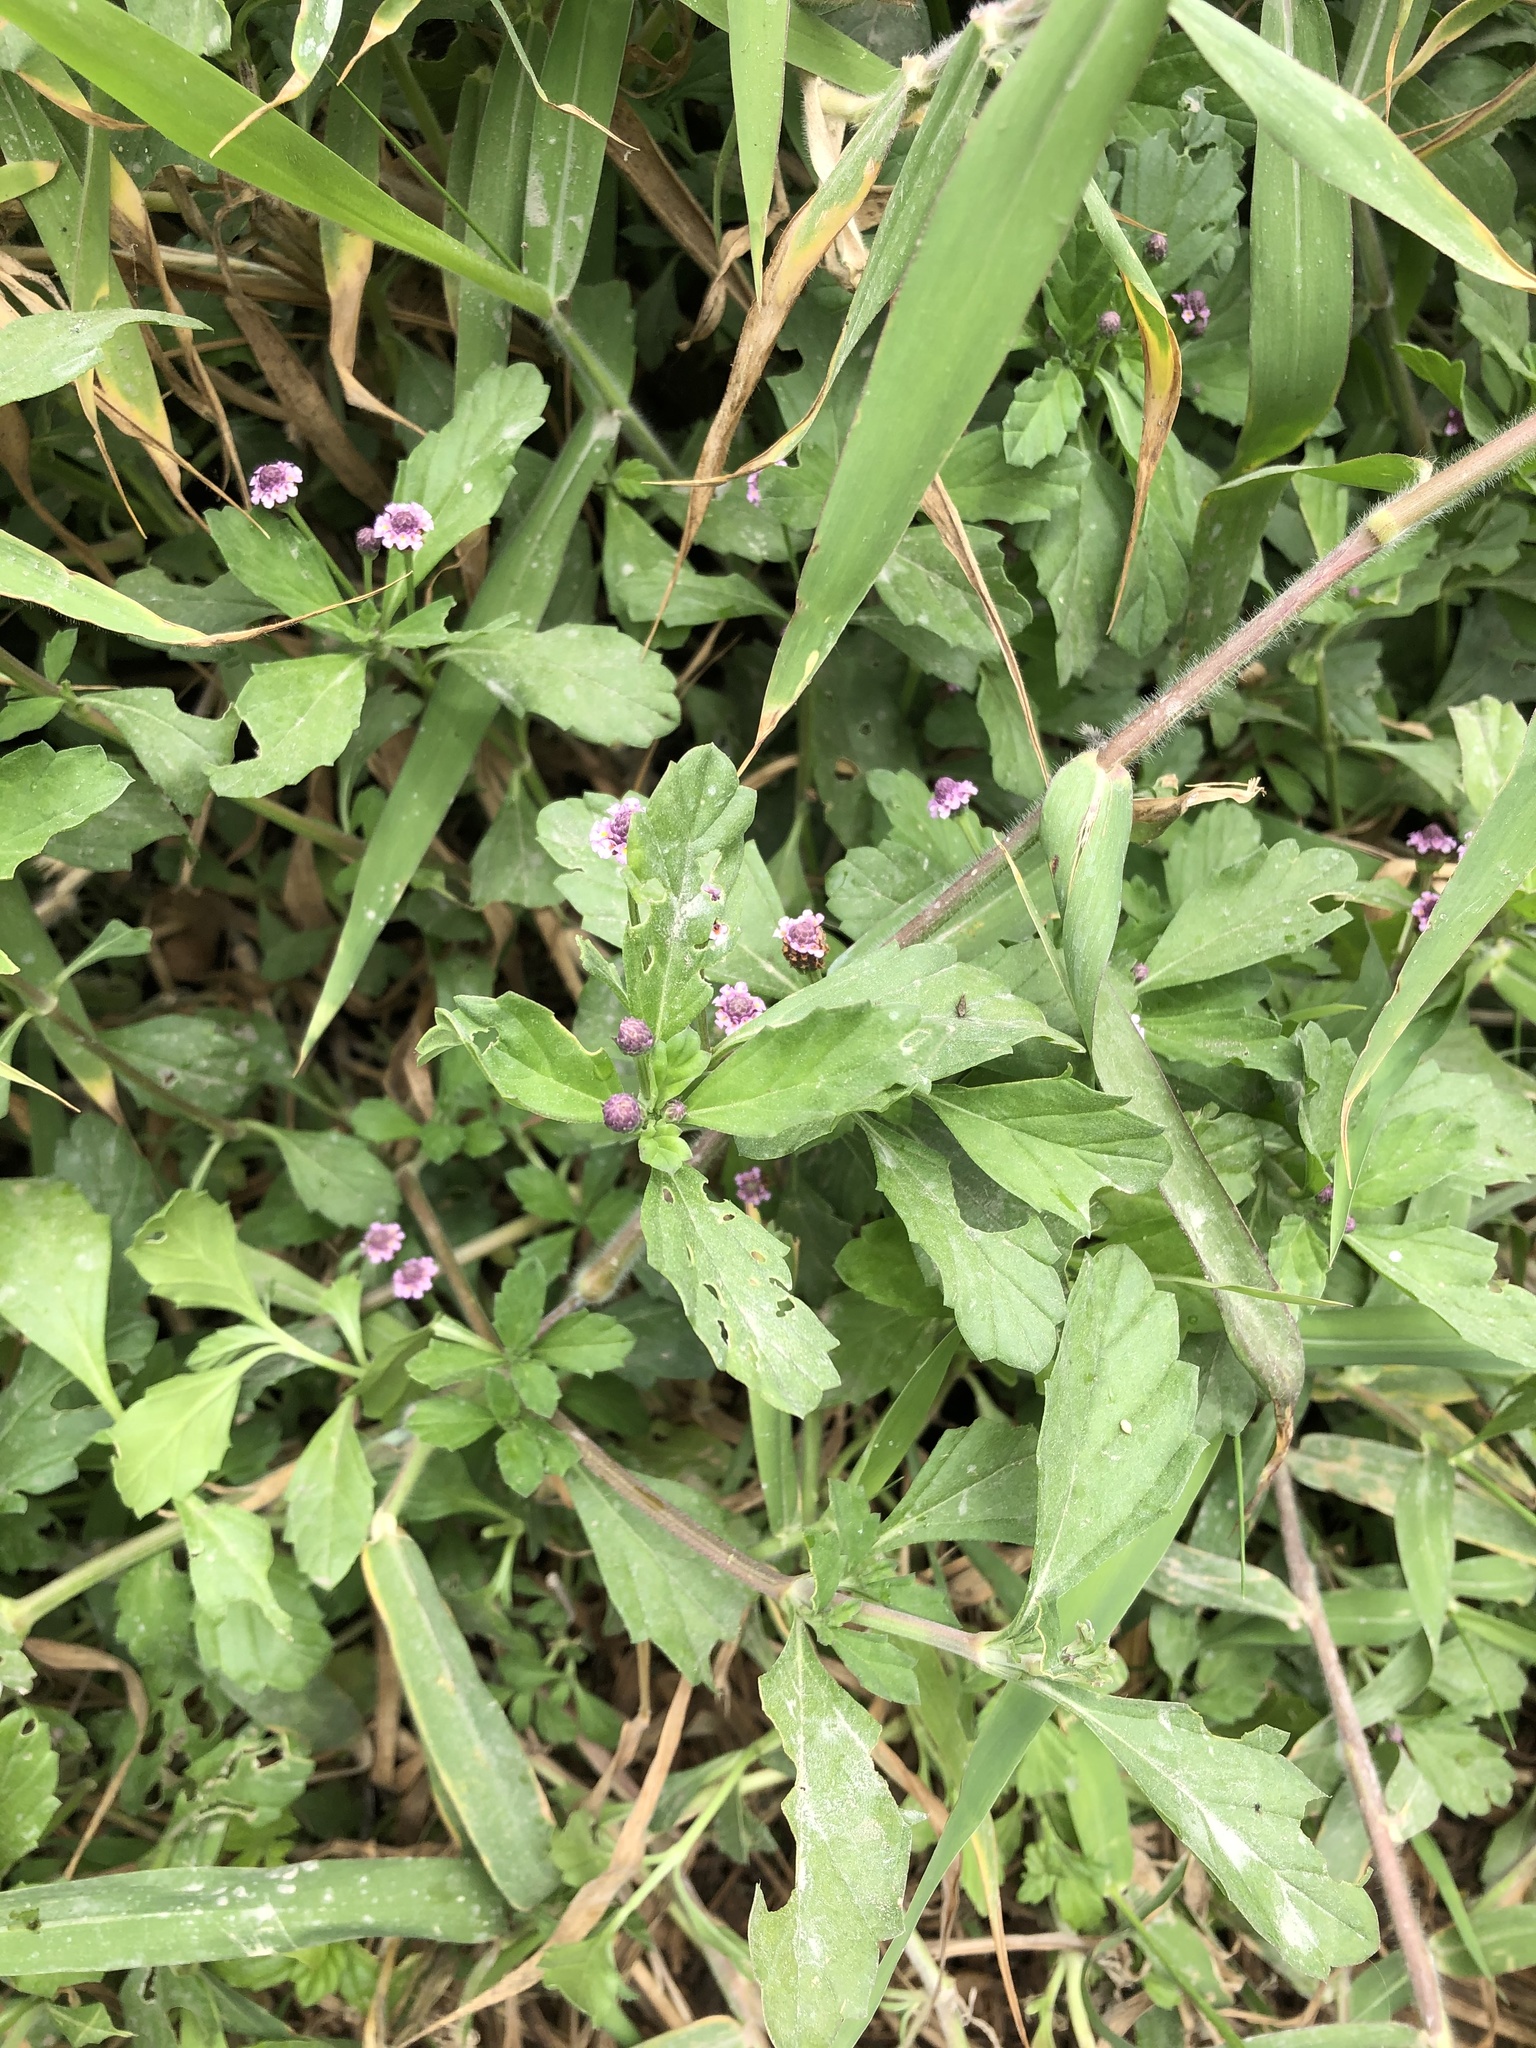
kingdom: Plantae
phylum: Tracheophyta
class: Magnoliopsida
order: Lamiales
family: Verbenaceae
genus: Phyla
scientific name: Phyla nodiflora
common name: Frogfruit
